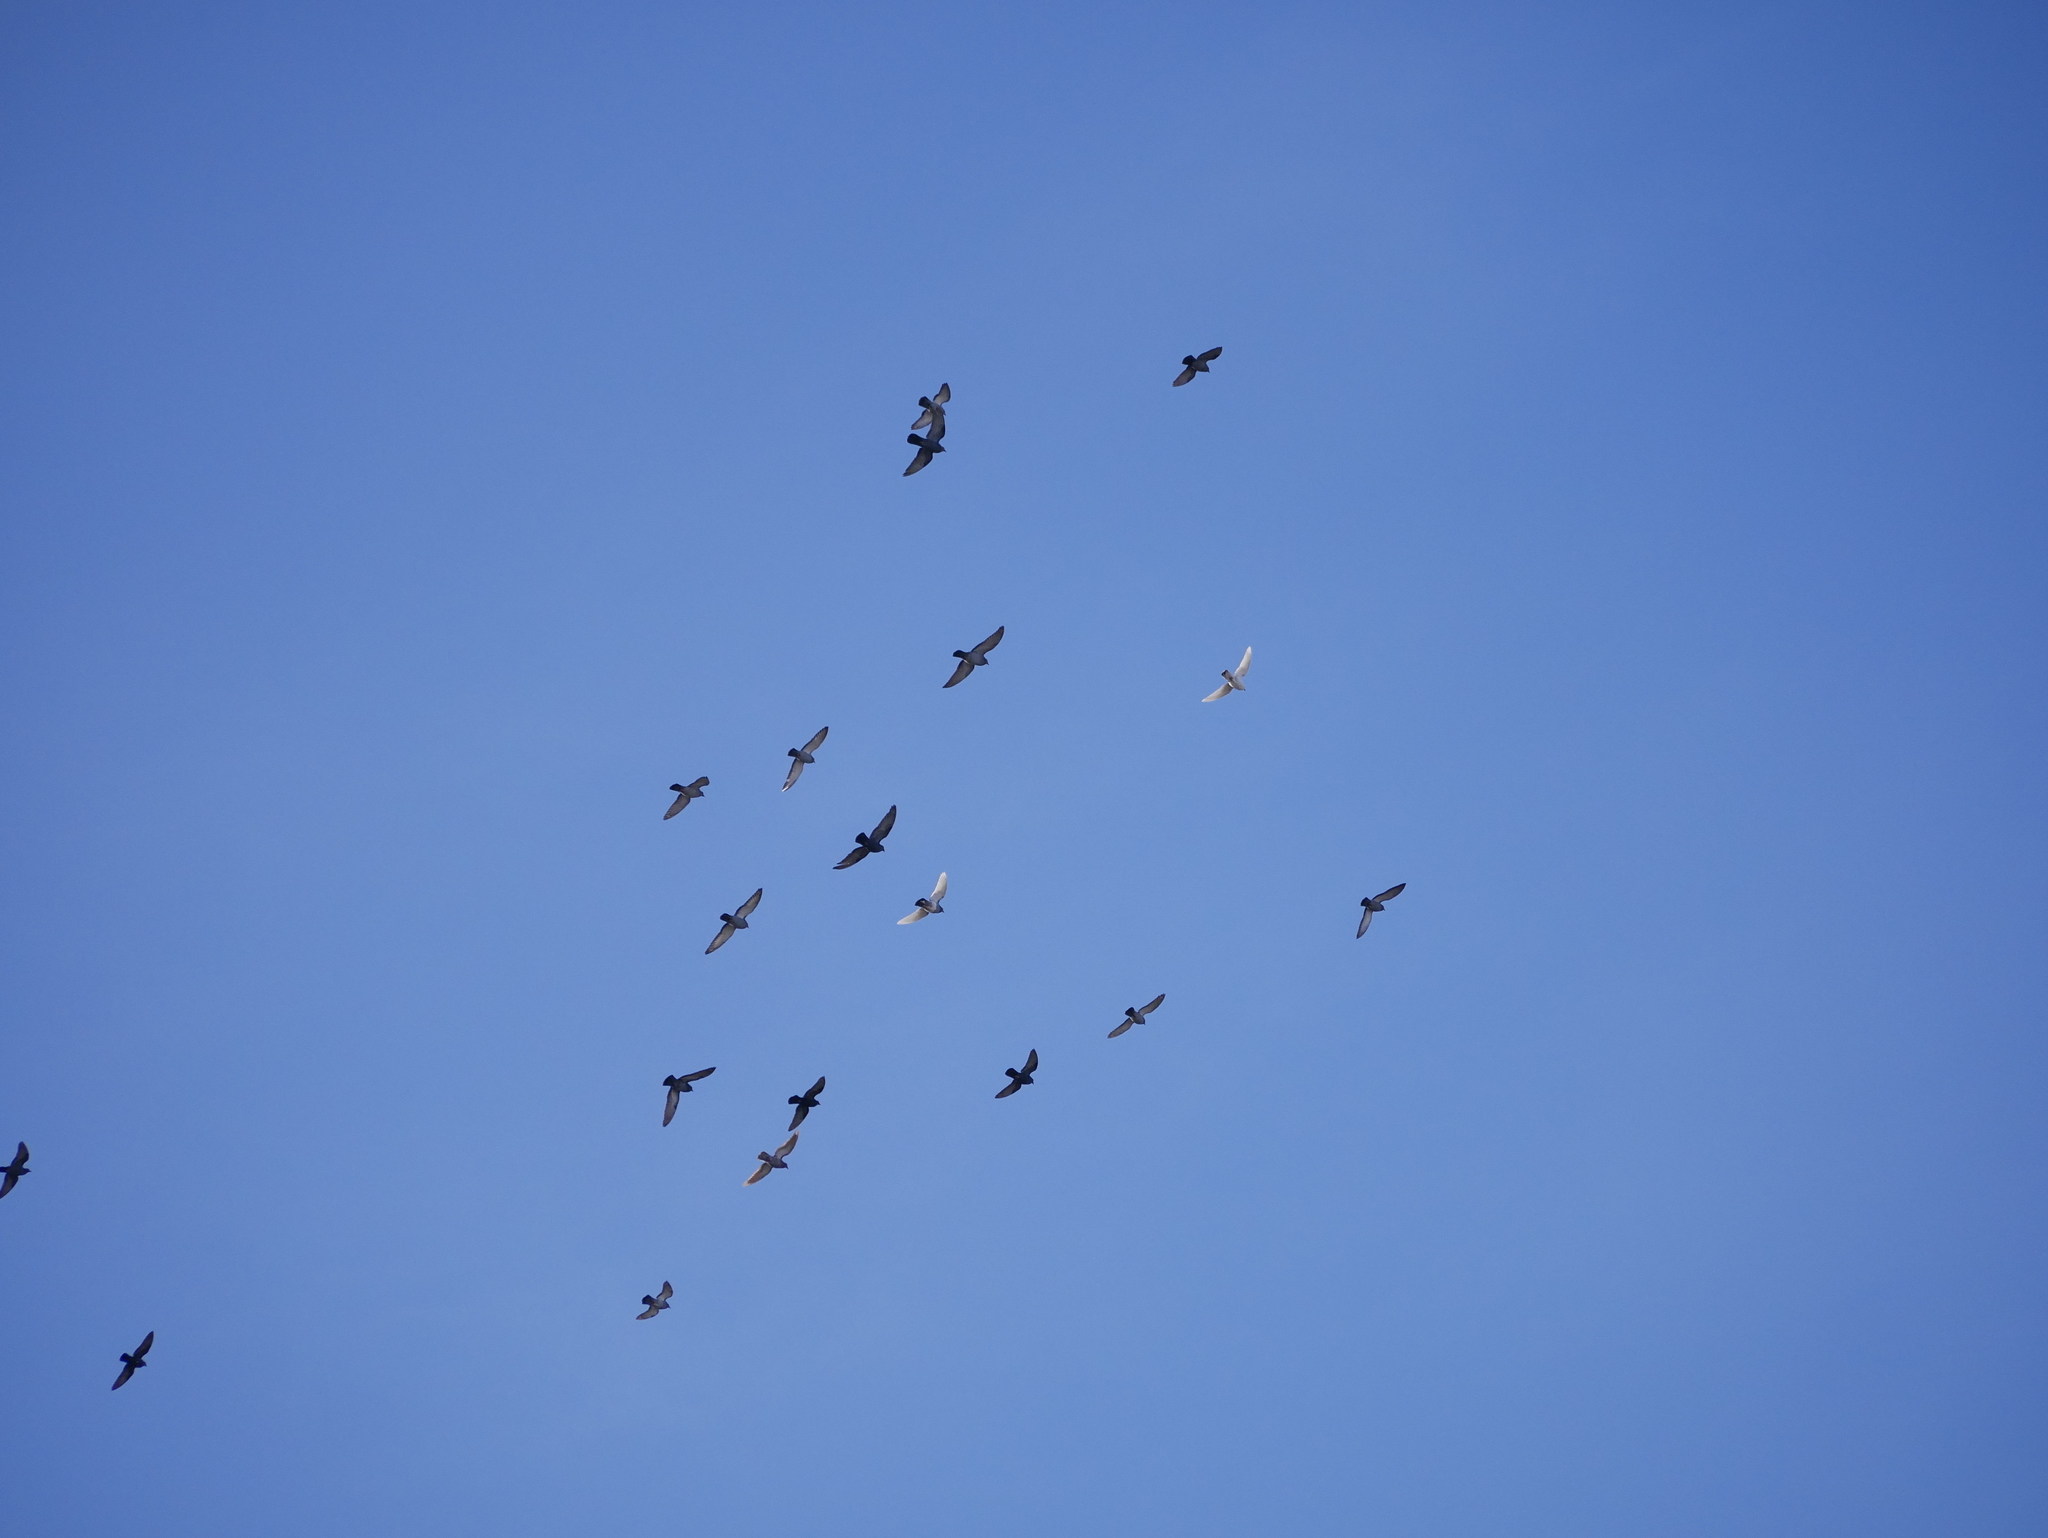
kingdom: Animalia
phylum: Chordata
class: Aves
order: Columbiformes
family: Columbidae
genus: Columba
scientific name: Columba livia
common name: Rock pigeon
